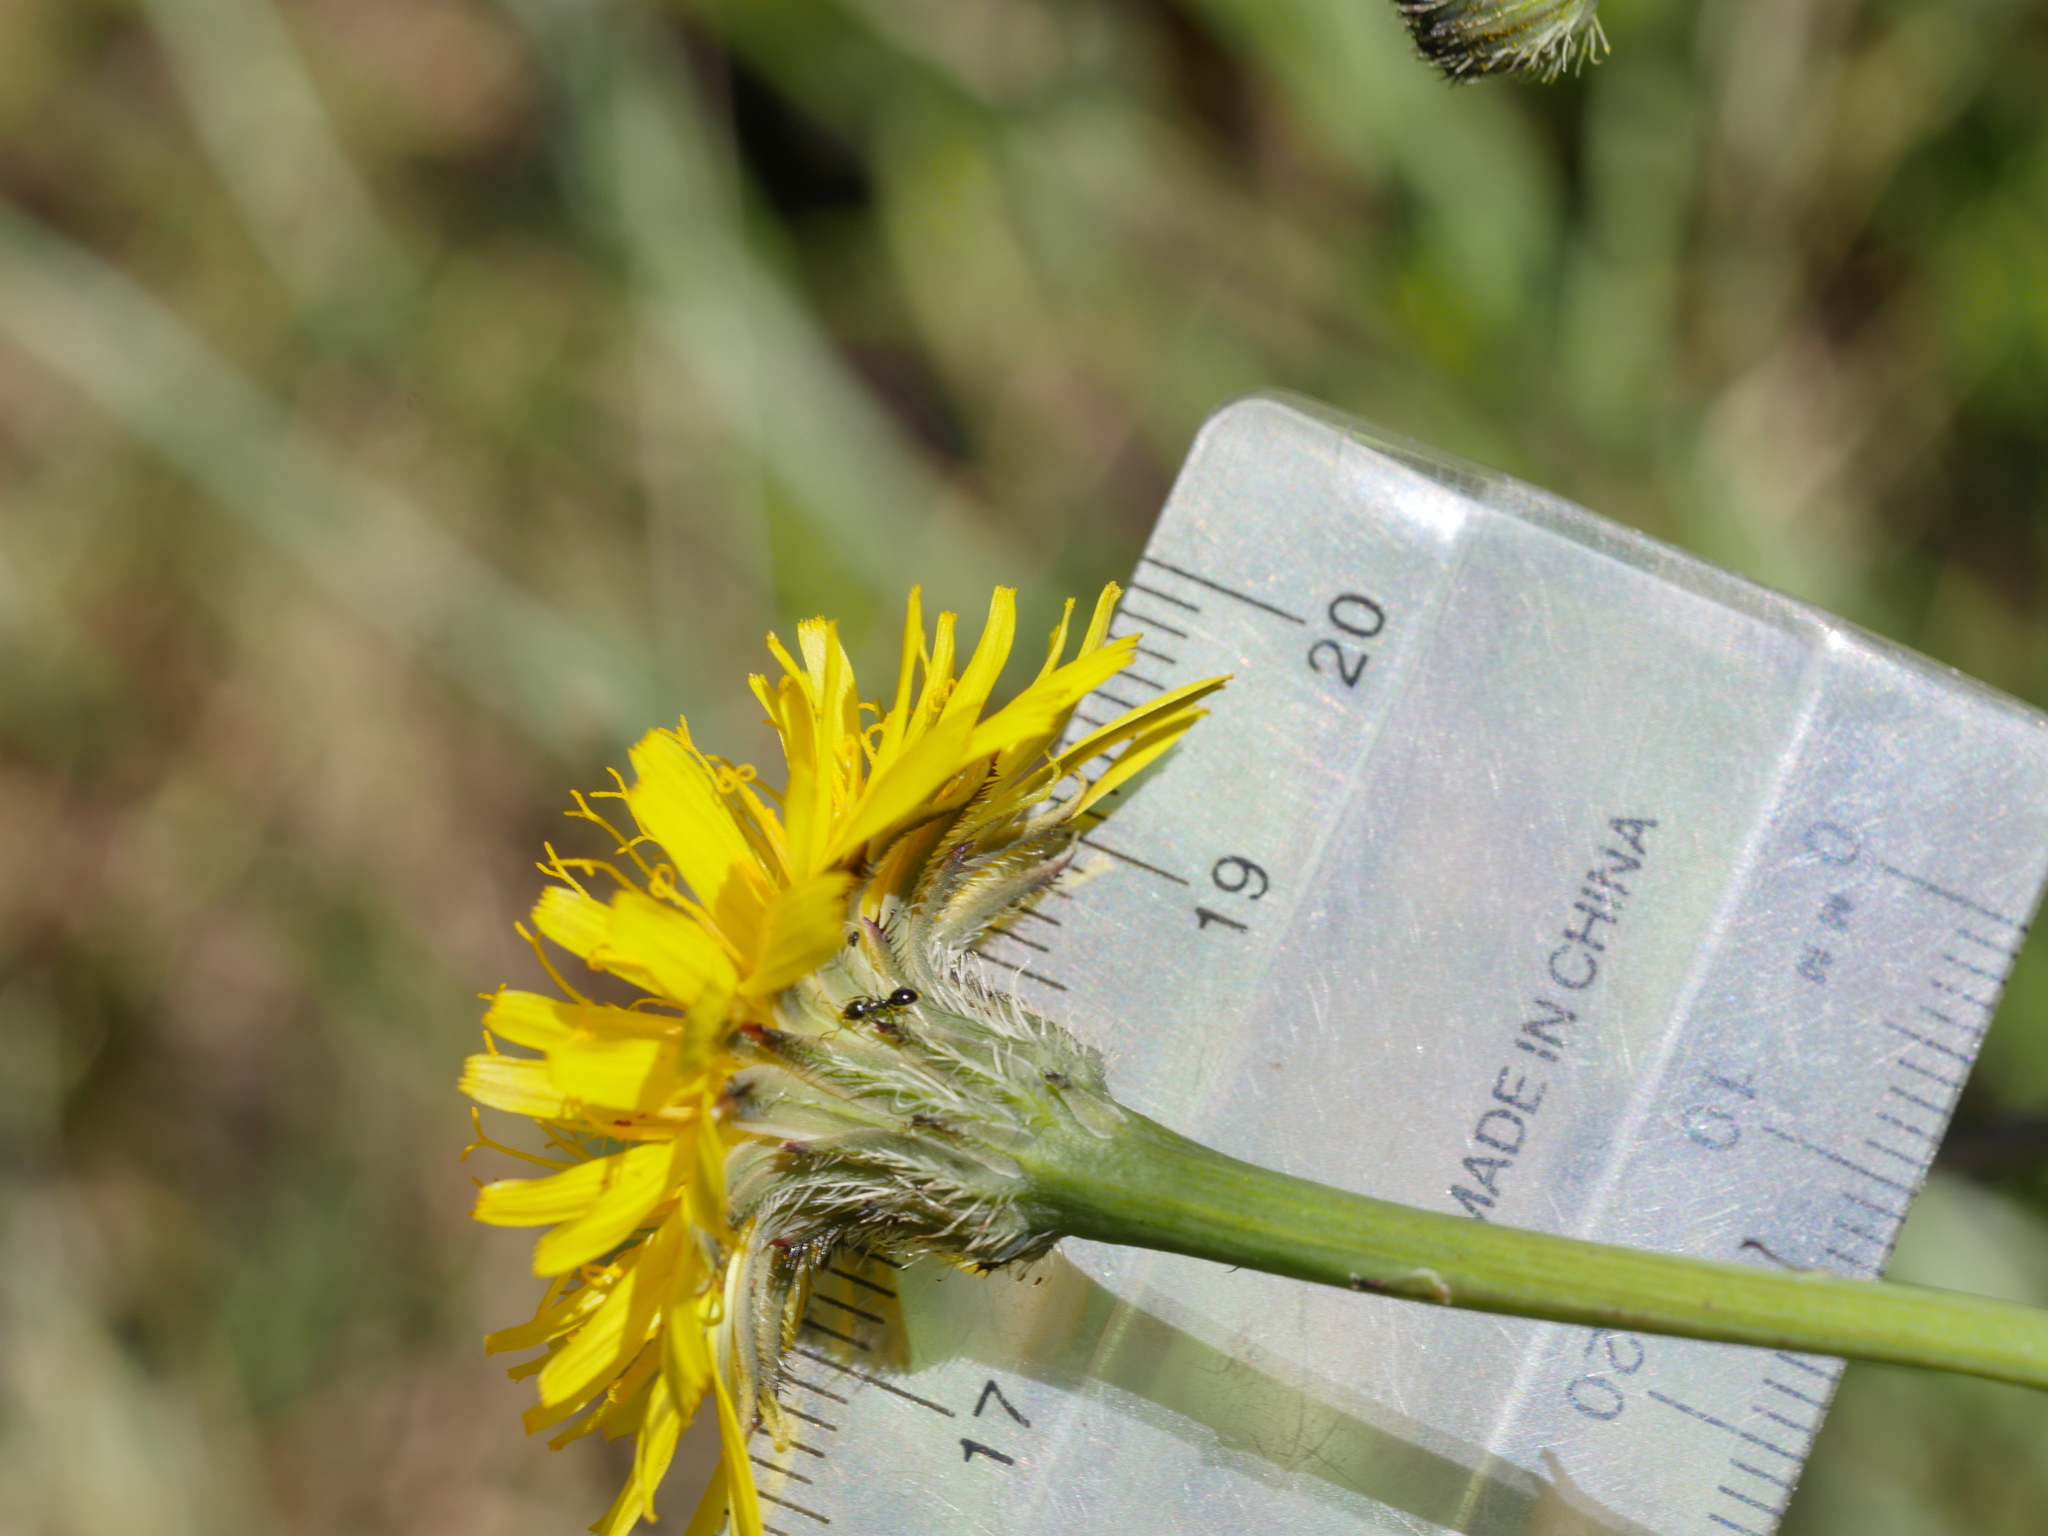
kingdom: Plantae
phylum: Tracheophyta
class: Magnoliopsida
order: Asterales
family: Asteraceae
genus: Hypochaeris
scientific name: Hypochaeris radicata
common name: Flatweed
